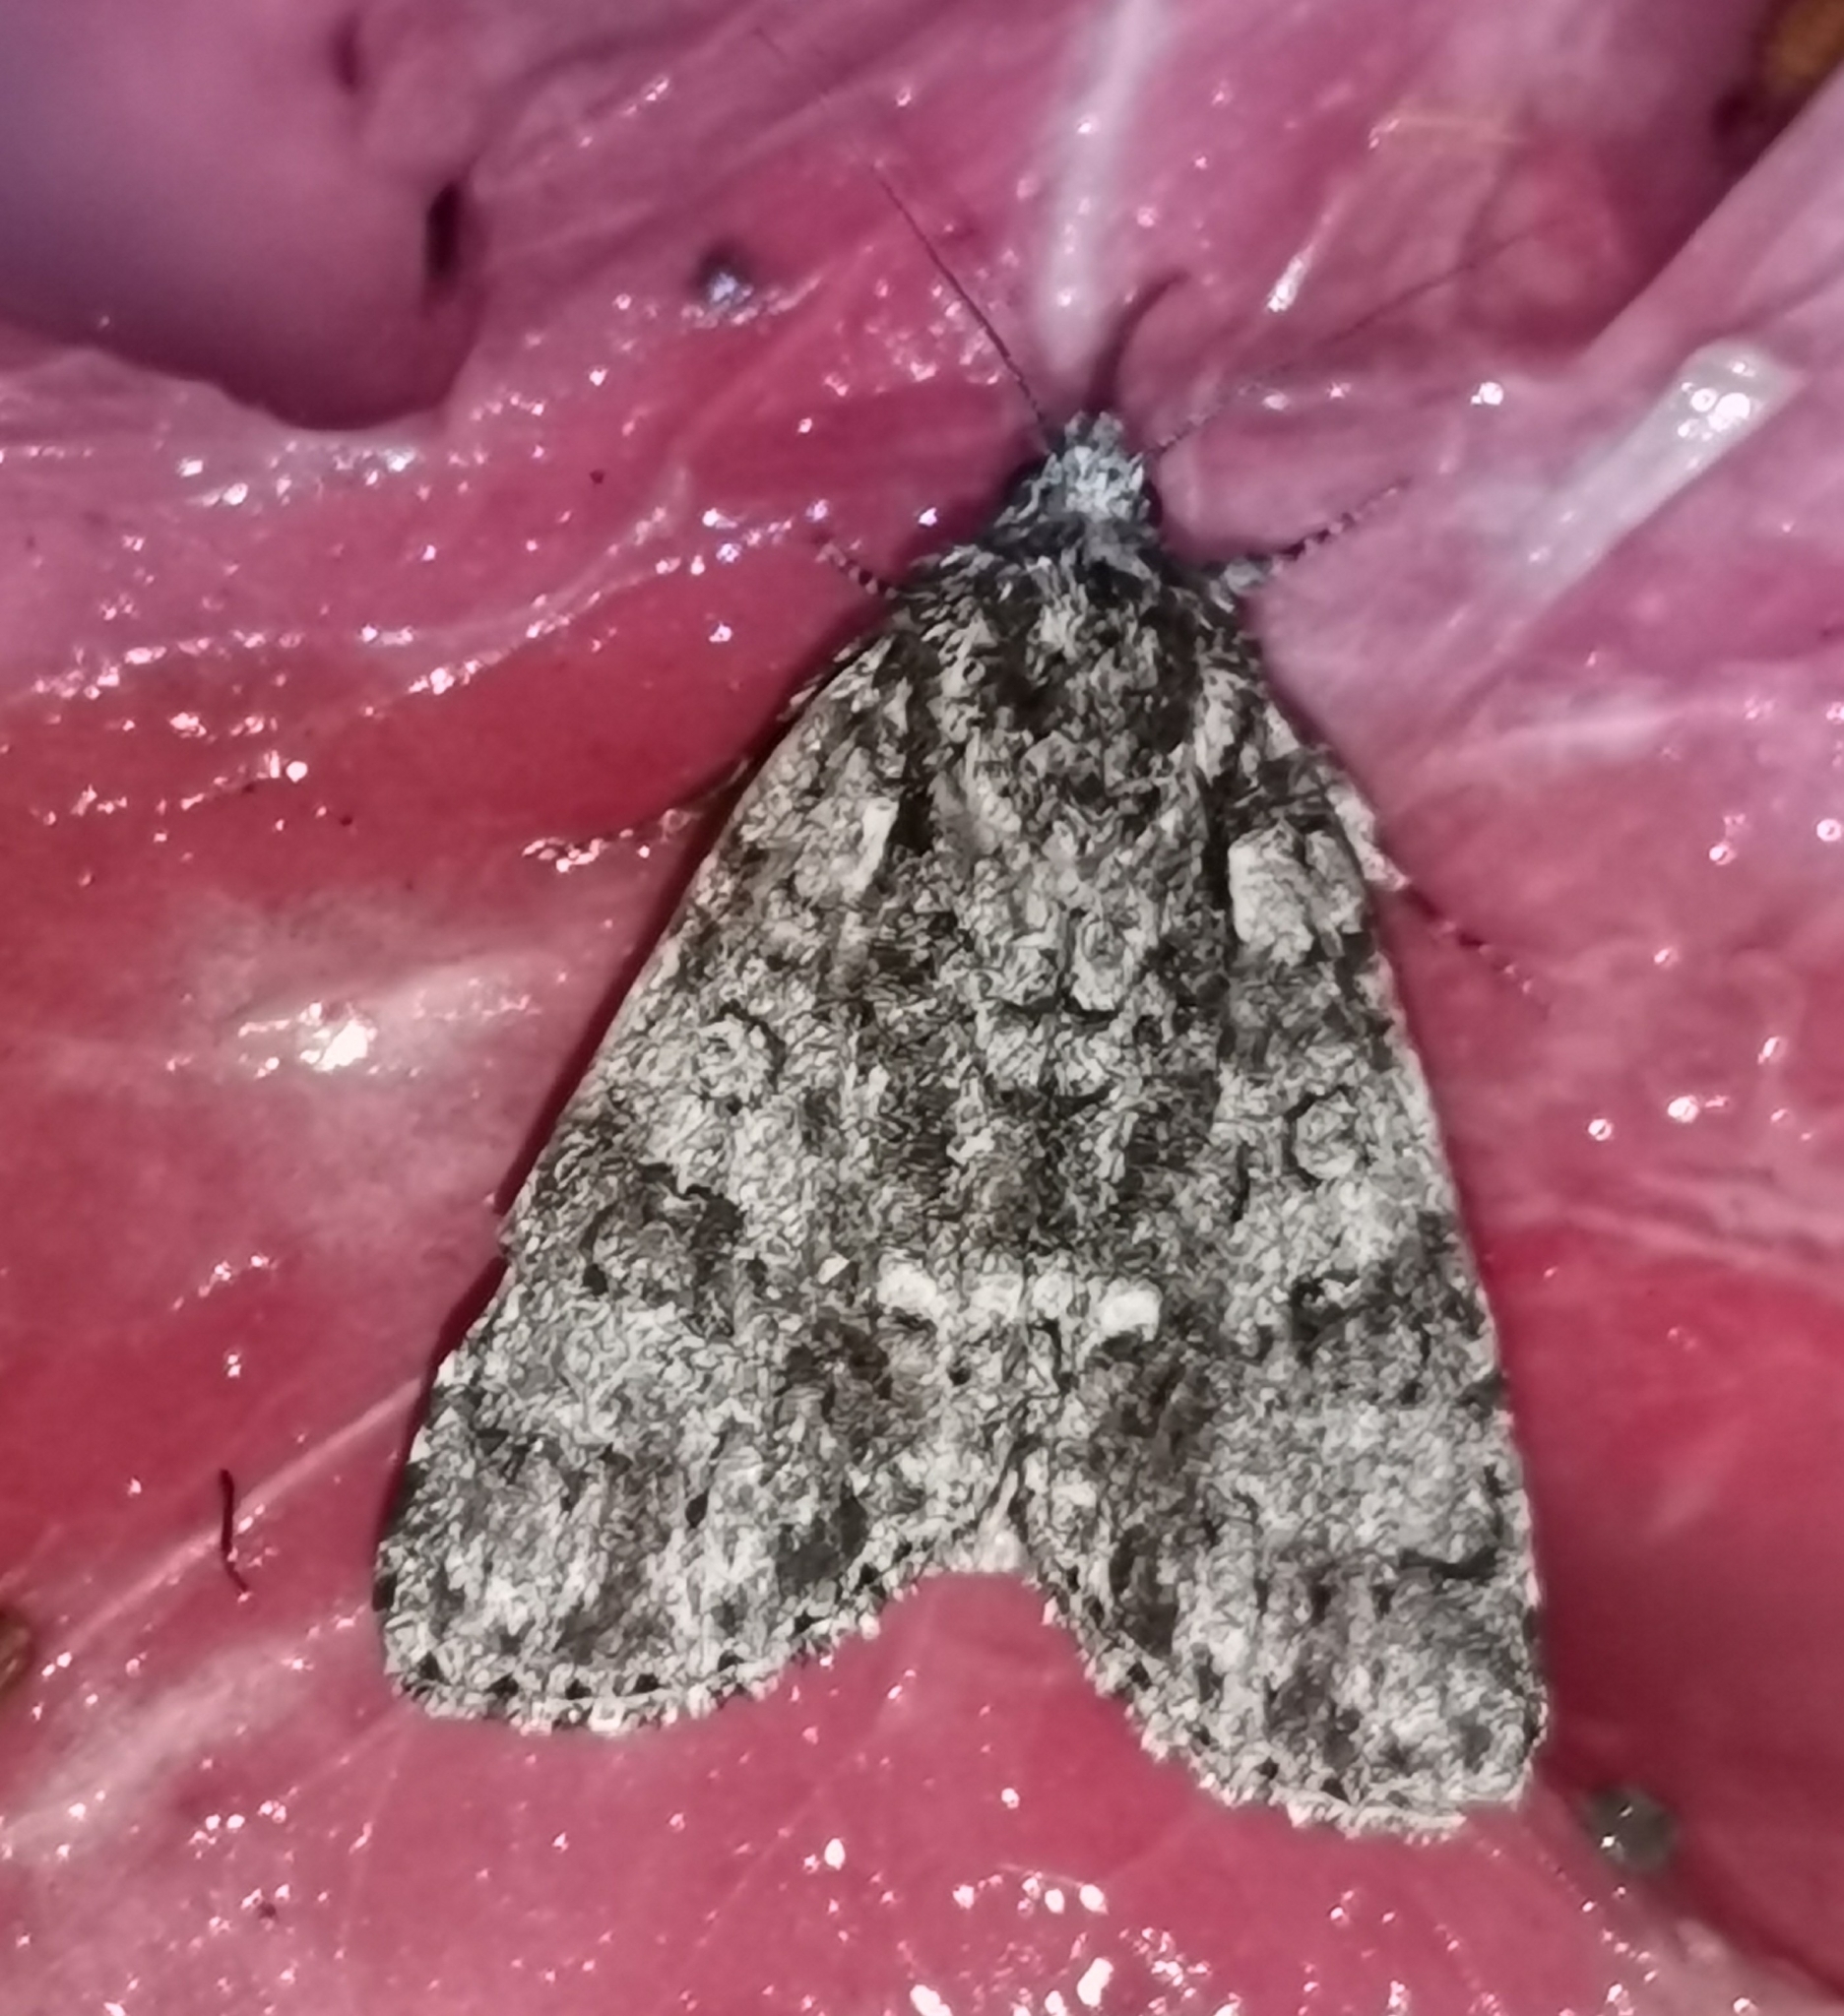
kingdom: Animalia
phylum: Arthropoda
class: Insecta
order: Lepidoptera
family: Noctuidae
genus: Acronicta
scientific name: Acronicta rumicis
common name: Knot grass
